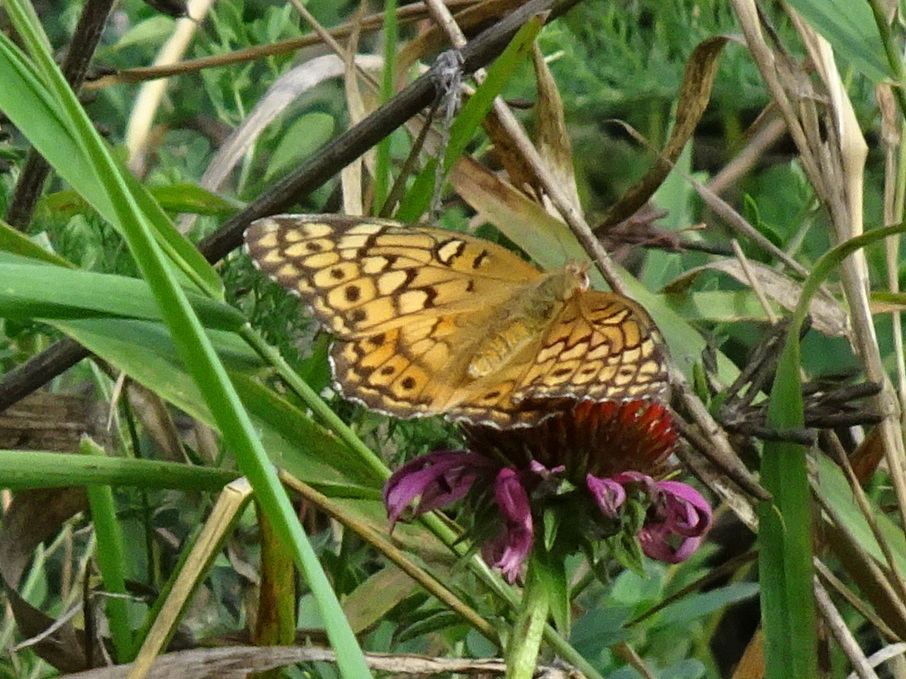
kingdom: Animalia
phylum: Arthropoda
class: Insecta
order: Lepidoptera
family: Nymphalidae
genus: Euptoieta
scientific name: Euptoieta claudia
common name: Variegated fritillary
